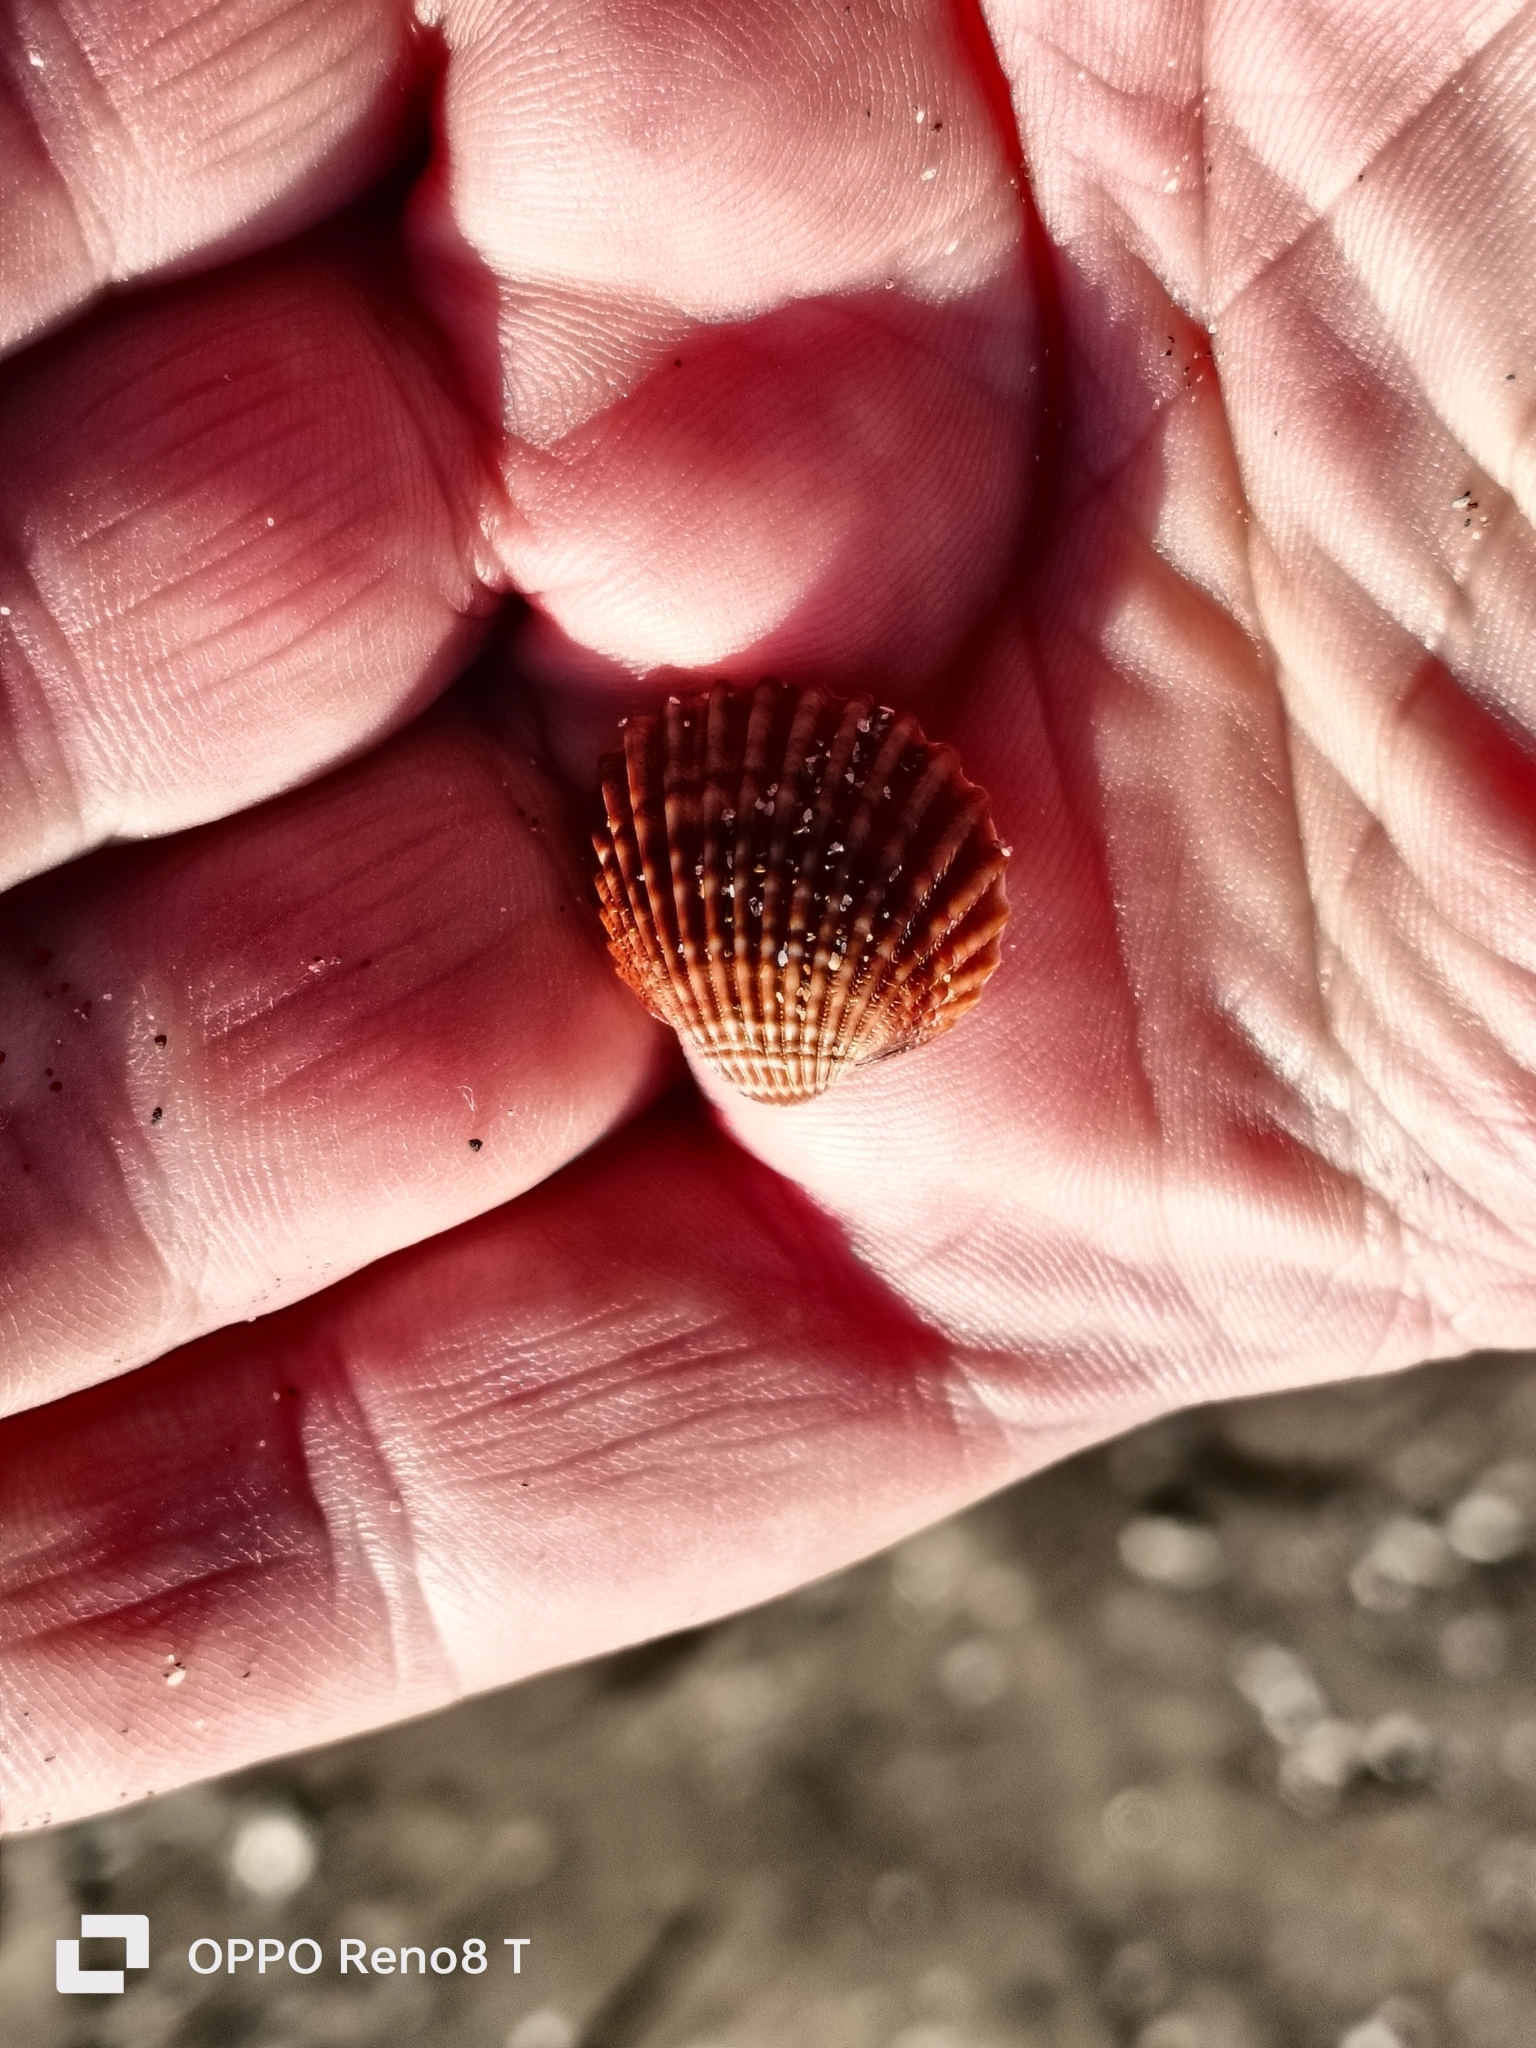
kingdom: Animalia
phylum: Mollusca
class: Bivalvia
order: Cardiida
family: Cardiidae
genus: Acanthocardia
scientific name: Acanthocardia tuberculata
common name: Rough cockle
